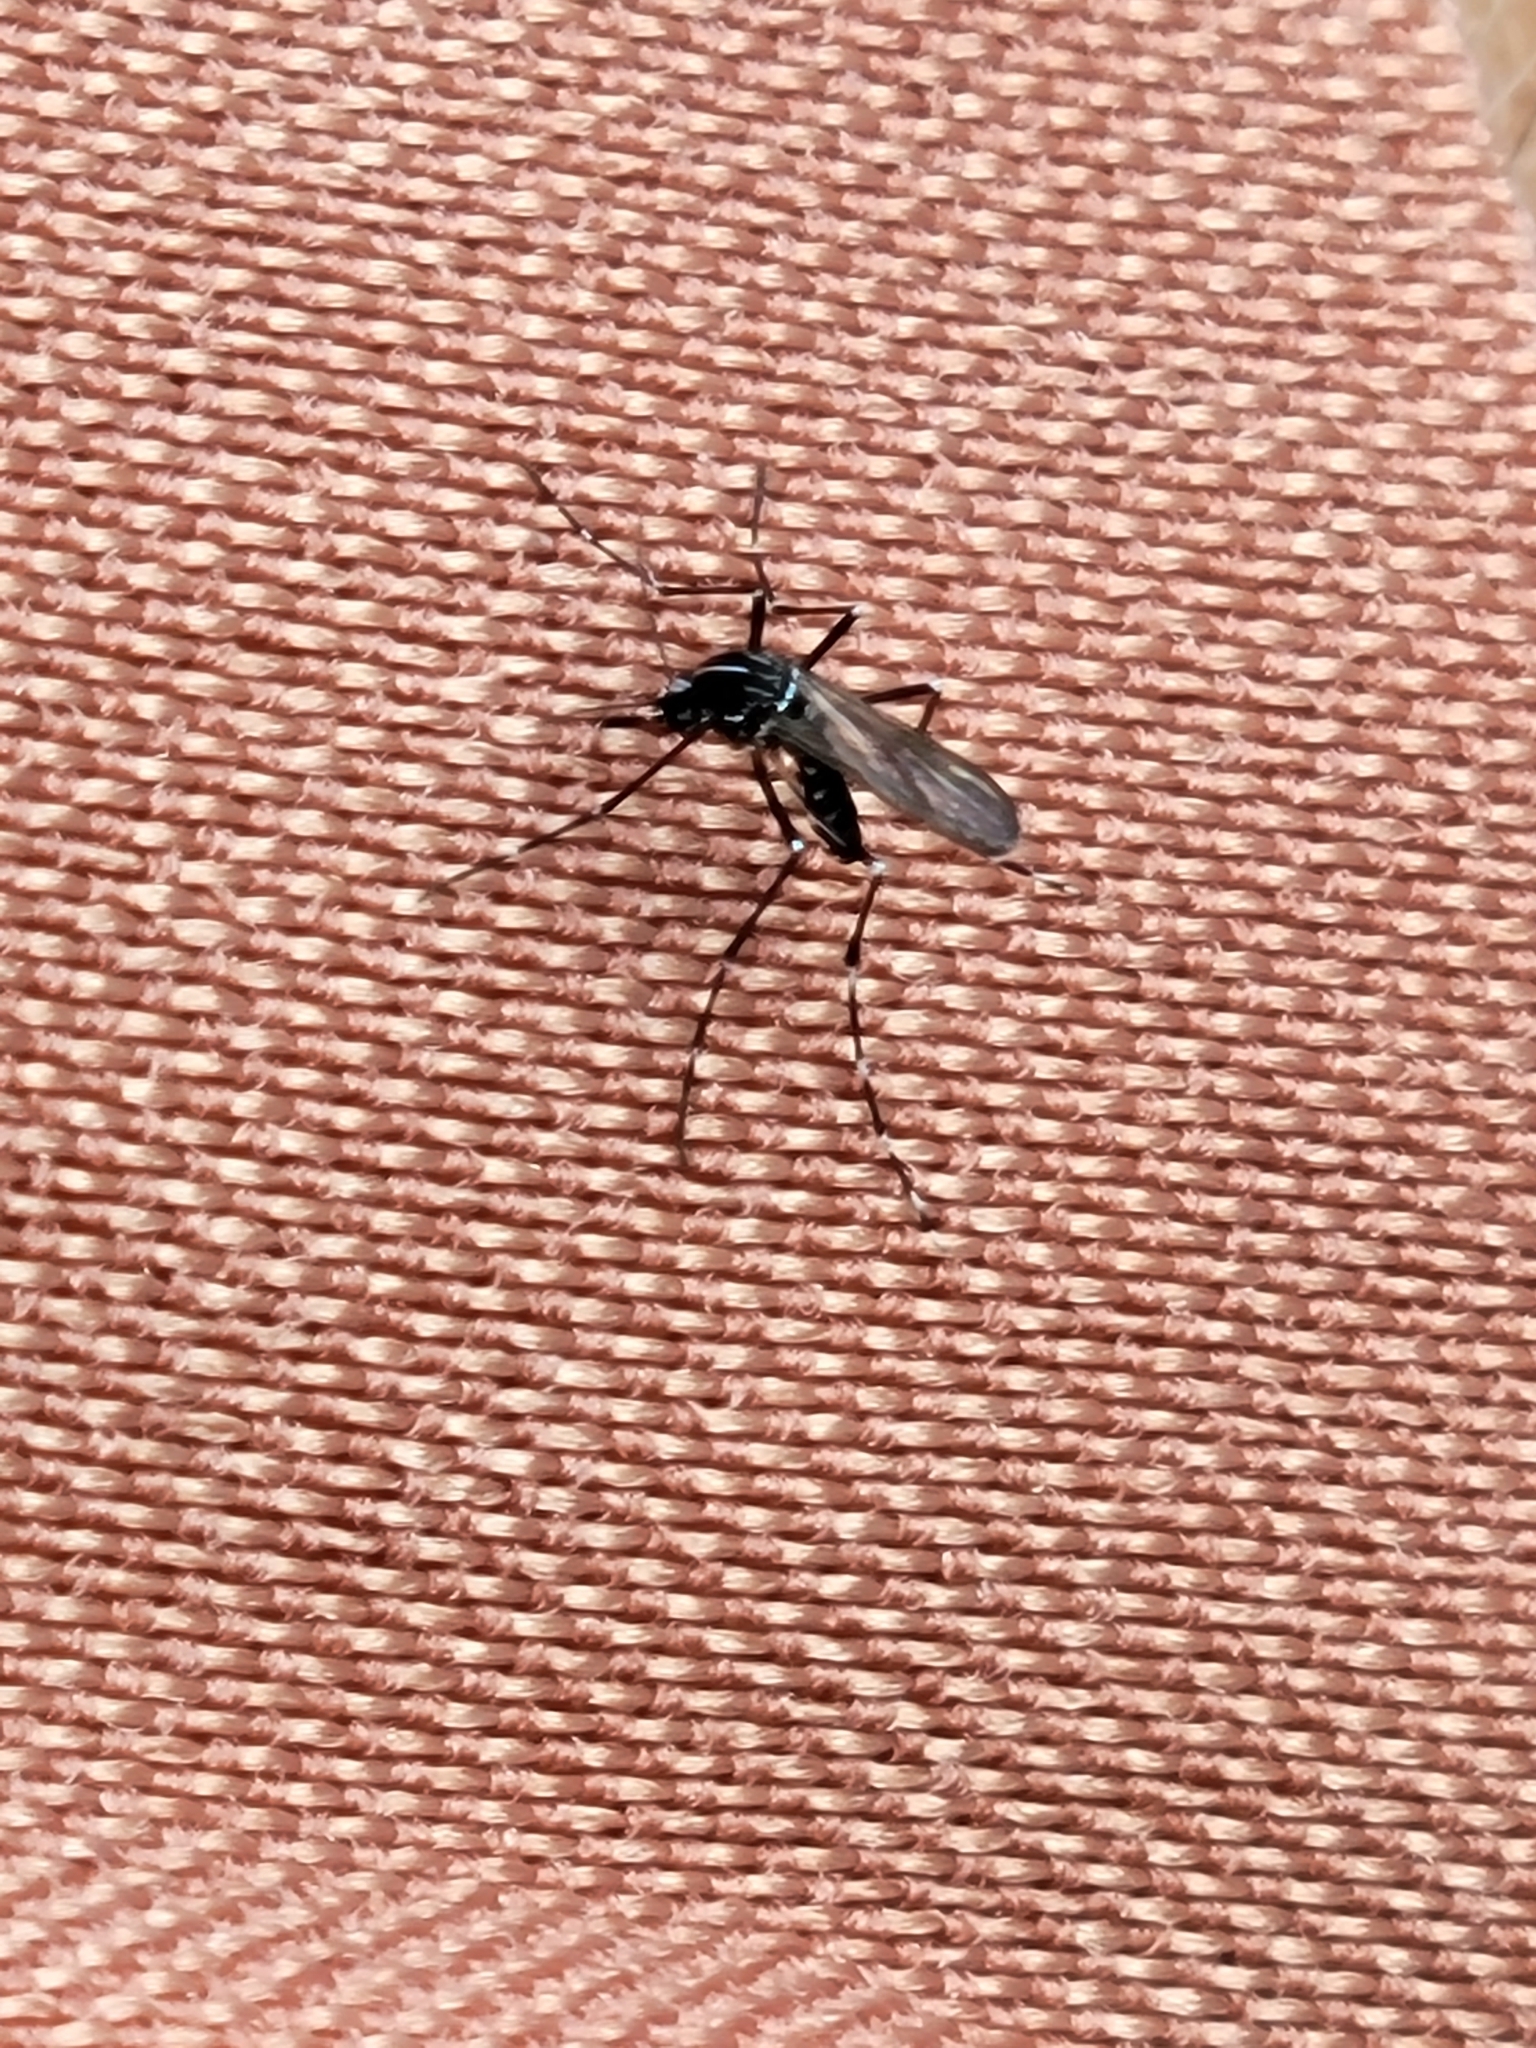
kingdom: Animalia
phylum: Arthropoda
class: Insecta
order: Diptera
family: Culicidae
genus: Aedes
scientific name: Aedes albopictus
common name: Tiger mosquito
